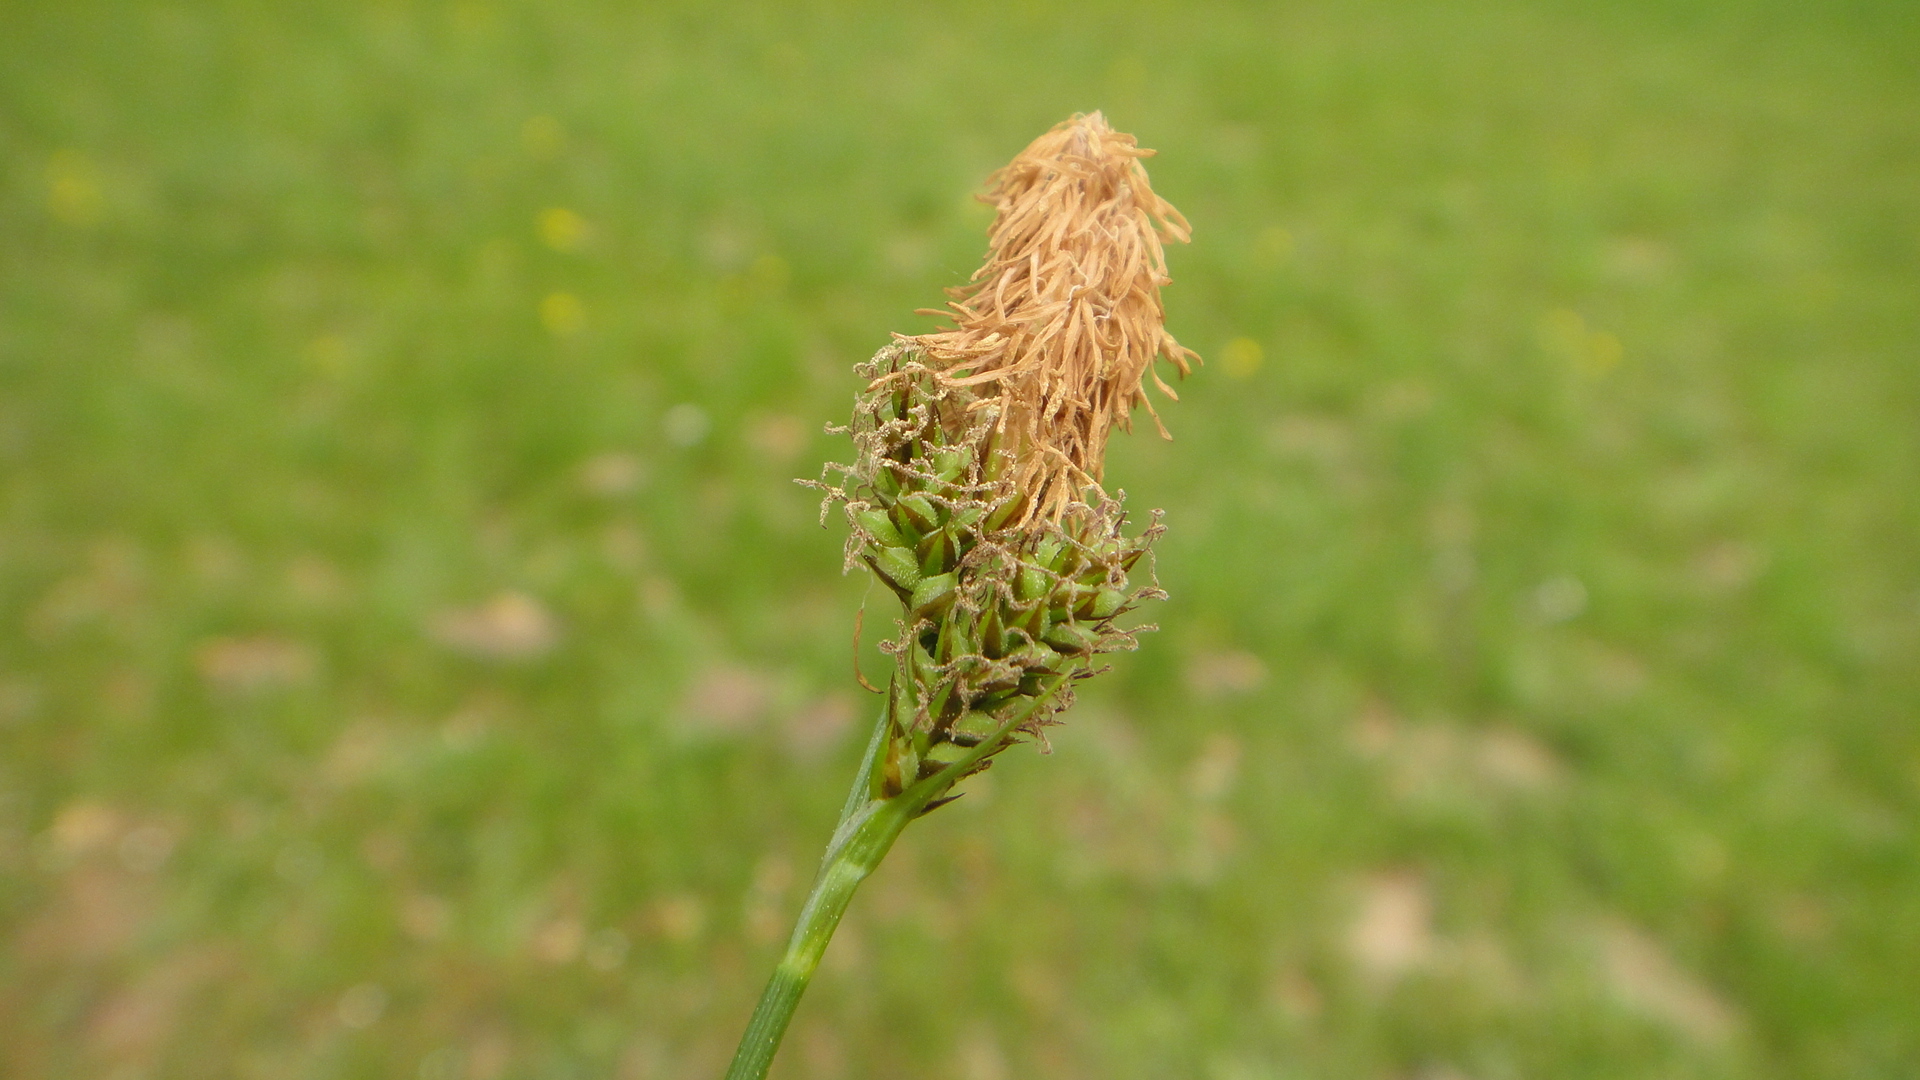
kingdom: Plantae
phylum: Tracheophyta
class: Liliopsida
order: Poales
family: Cyperaceae
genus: Carex
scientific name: Carex caryophyllea
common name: Spring sedge
